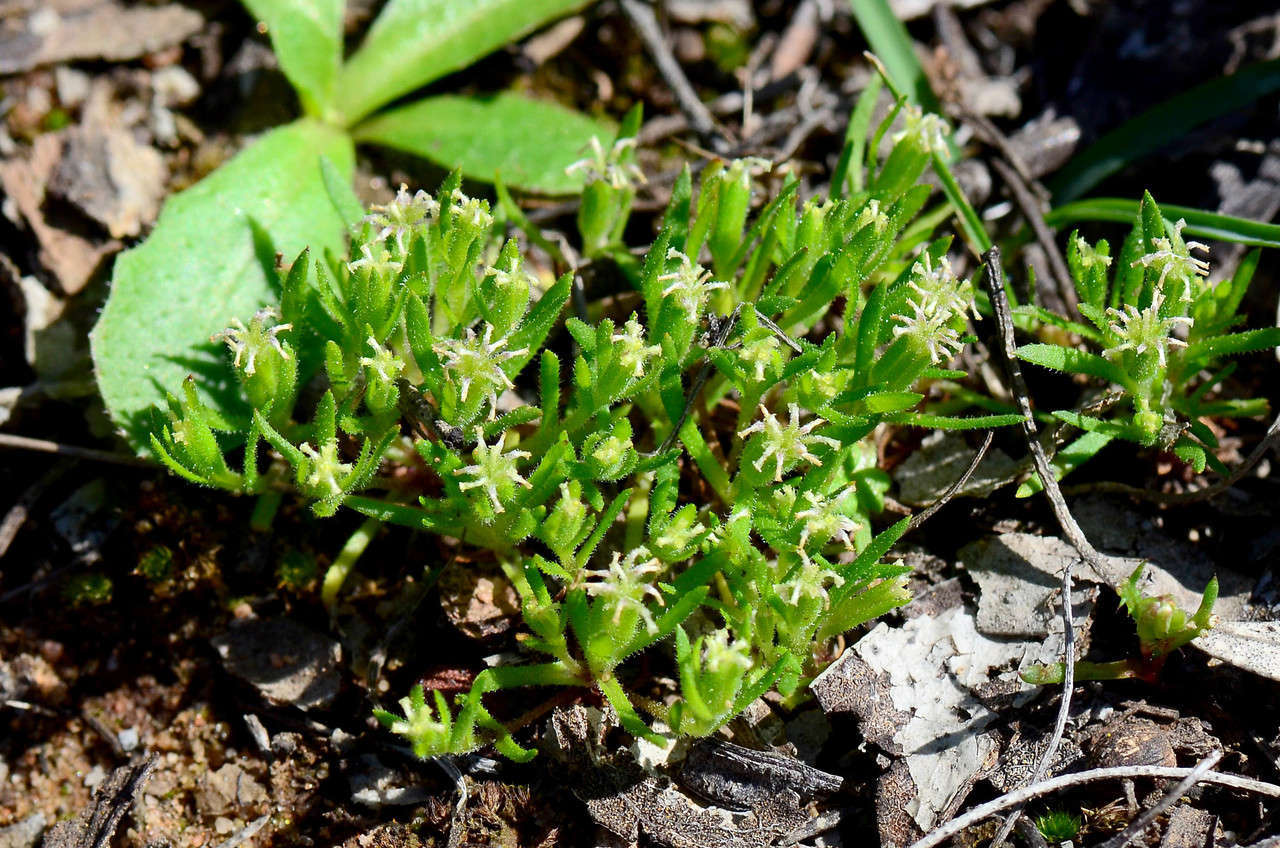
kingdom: Plantae
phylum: Tracheophyta
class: Magnoliopsida
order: Asterales
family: Asteraceae
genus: Millotia
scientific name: Millotia muelleri
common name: Common bow-flower
